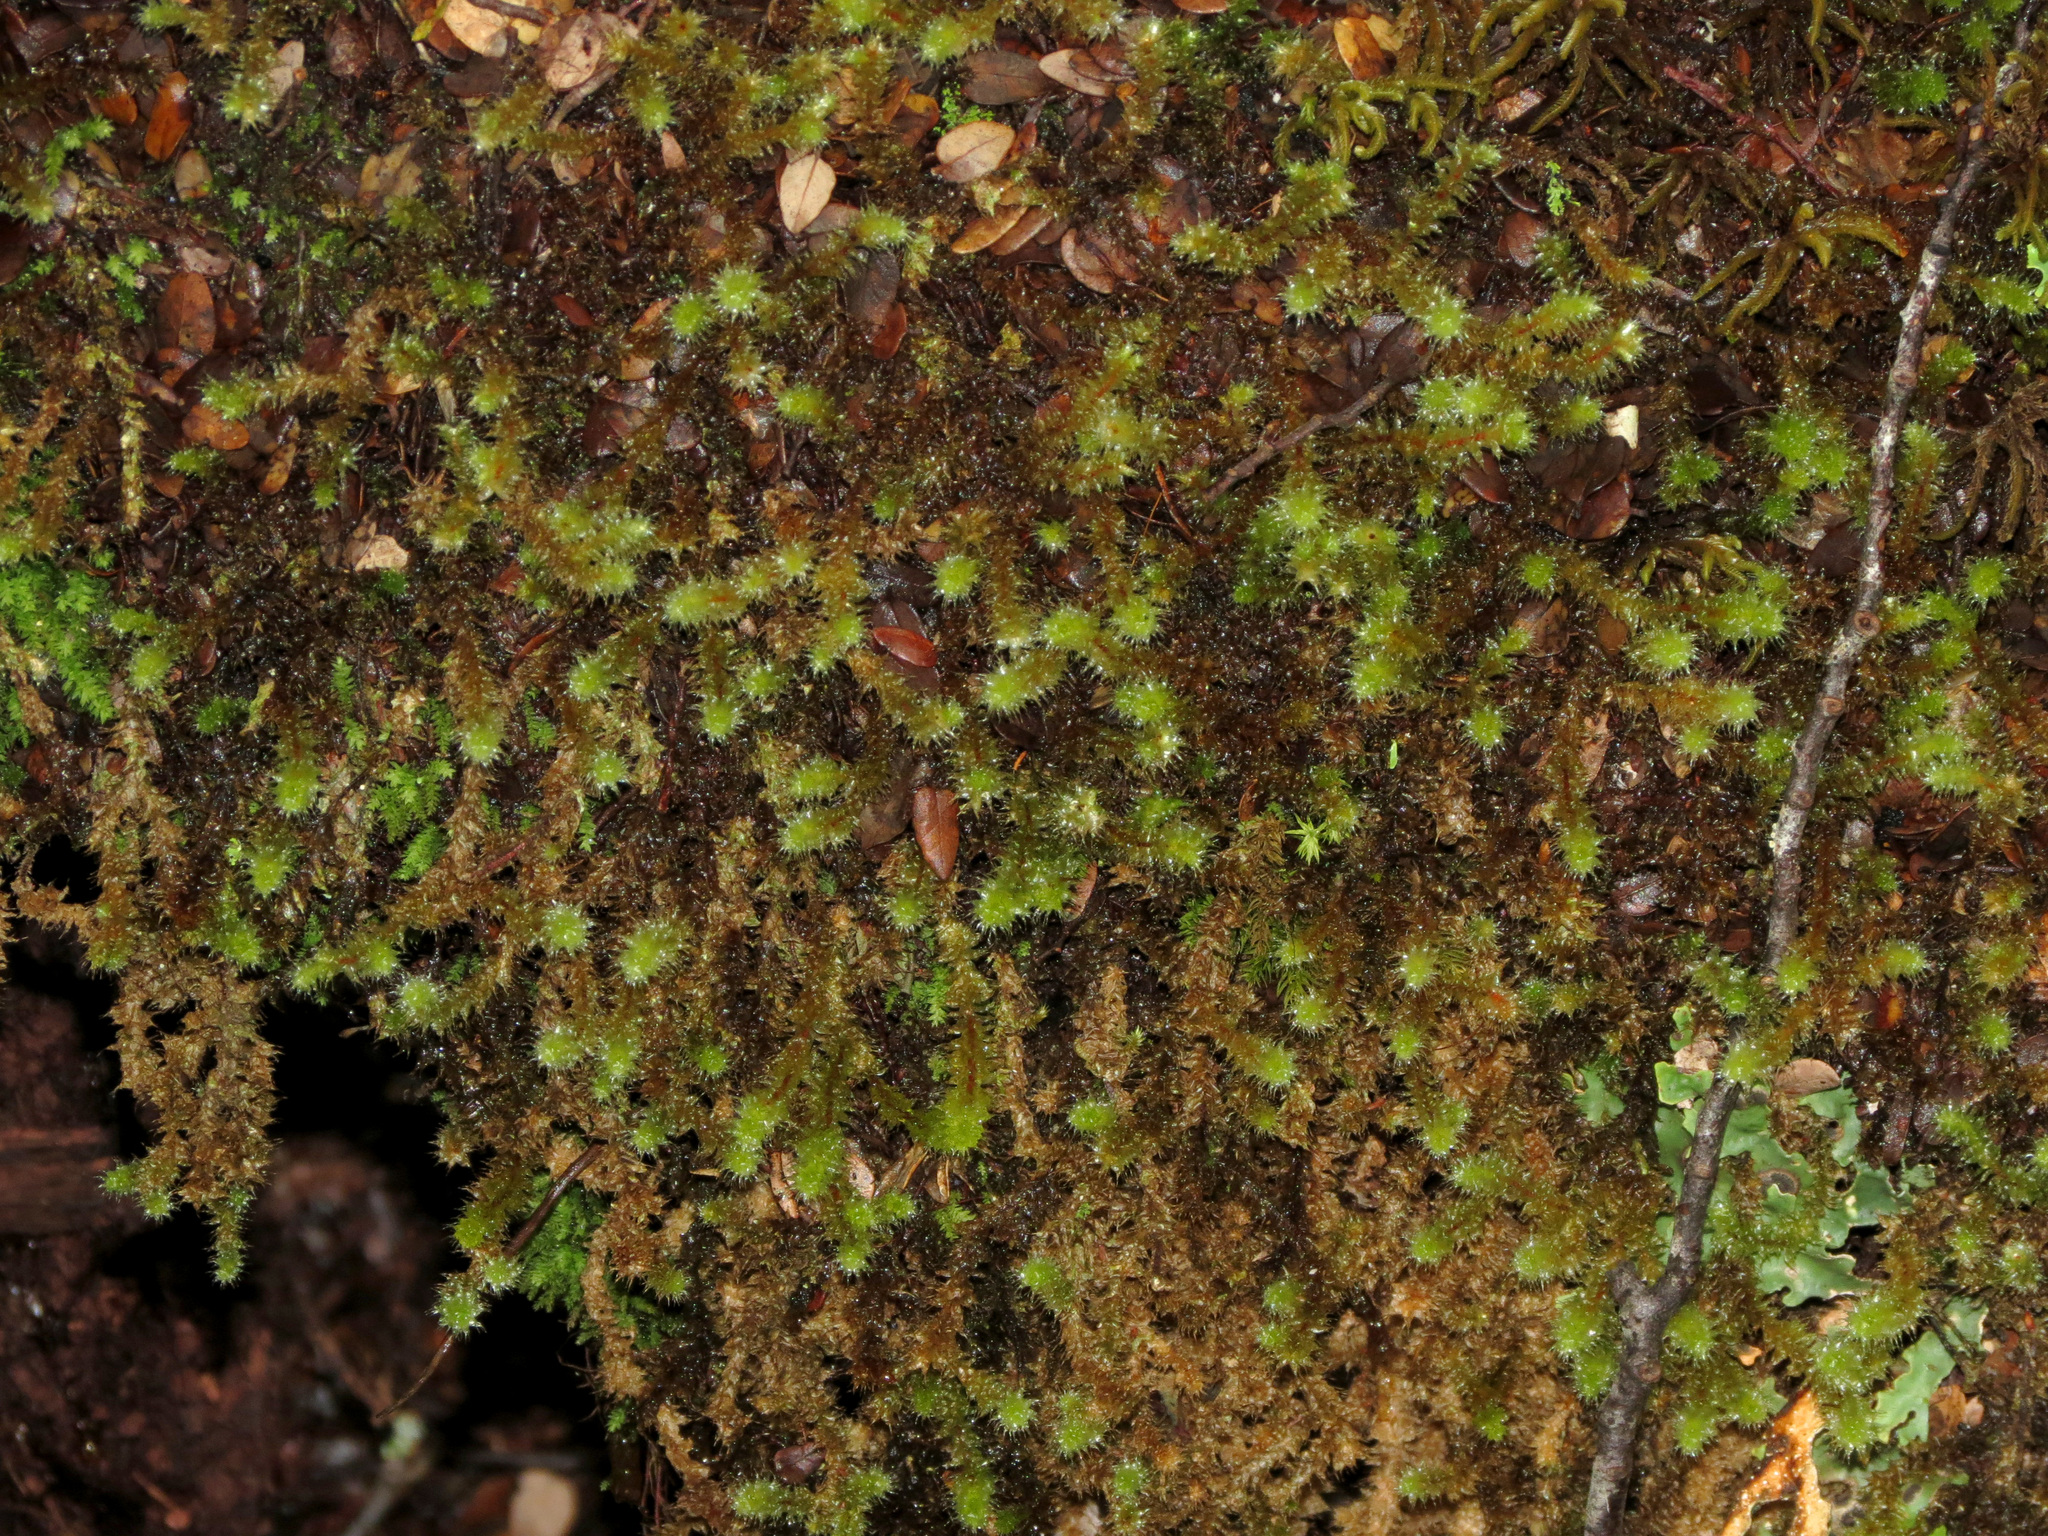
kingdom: Plantae
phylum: Bryophyta
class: Bryopsida
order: Ptychomniales
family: Ptychomniaceae
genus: Ptychomnion
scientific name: Ptychomnion aciculare
